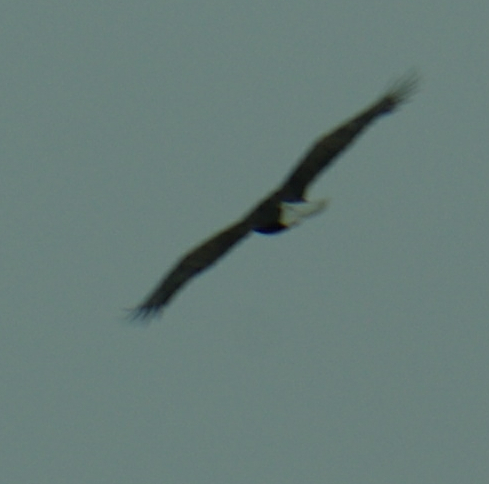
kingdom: Animalia
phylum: Chordata
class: Aves
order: Accipitriformes
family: Accipitridae
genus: Haliaeetus
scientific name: Haliaeetus leucocephalus
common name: Bald eagle
